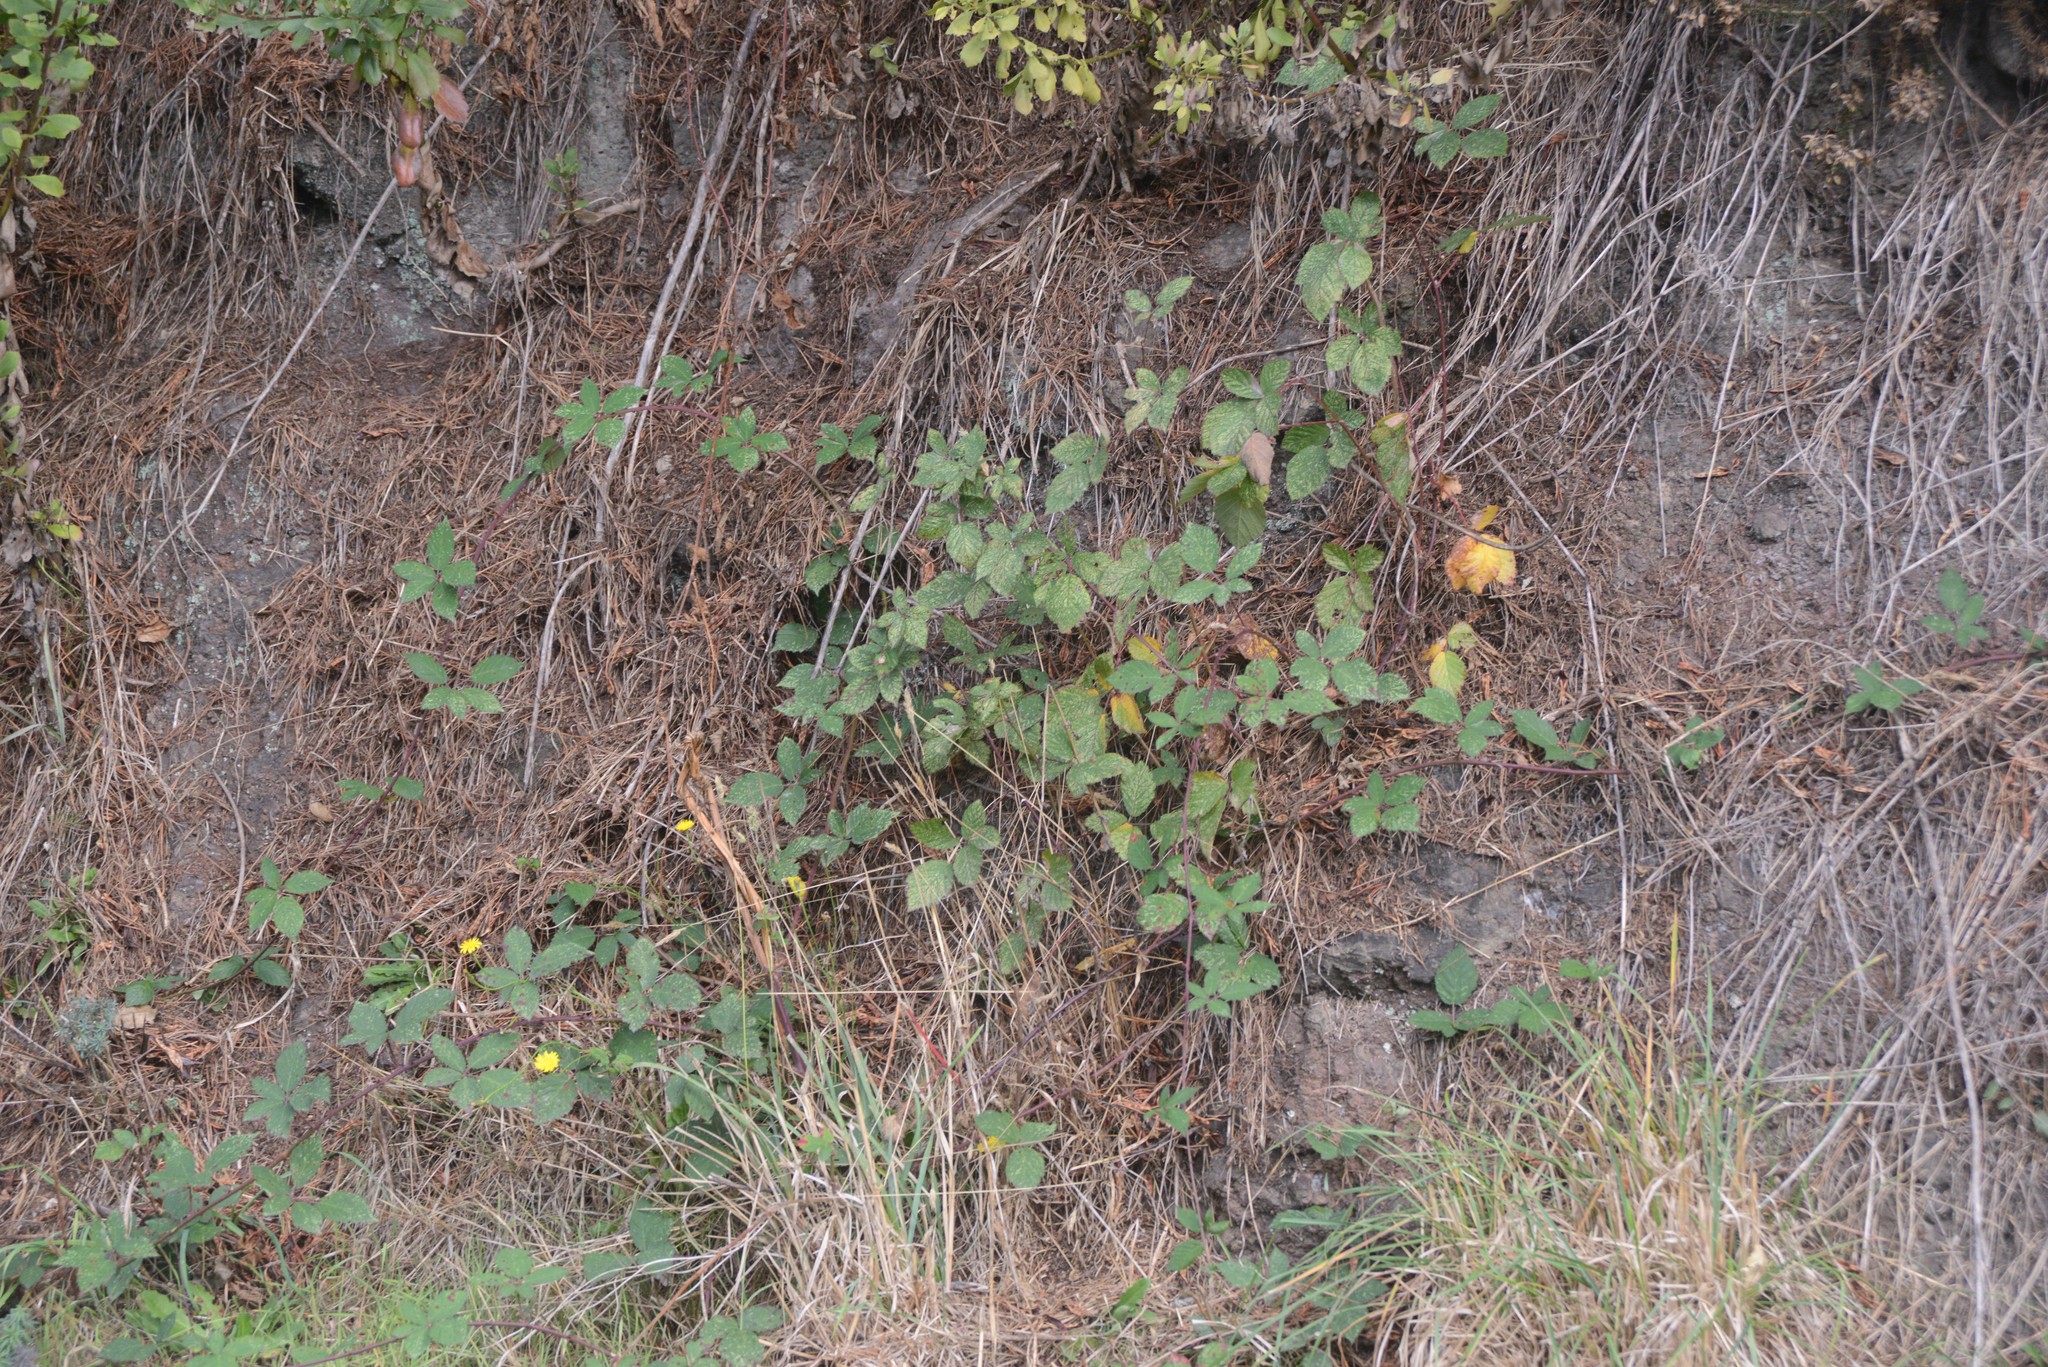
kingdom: Plantae
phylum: Tracheophyta
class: Magnoliopsida
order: Rosales
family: Rosaceae
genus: Rubus
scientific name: Rubus
